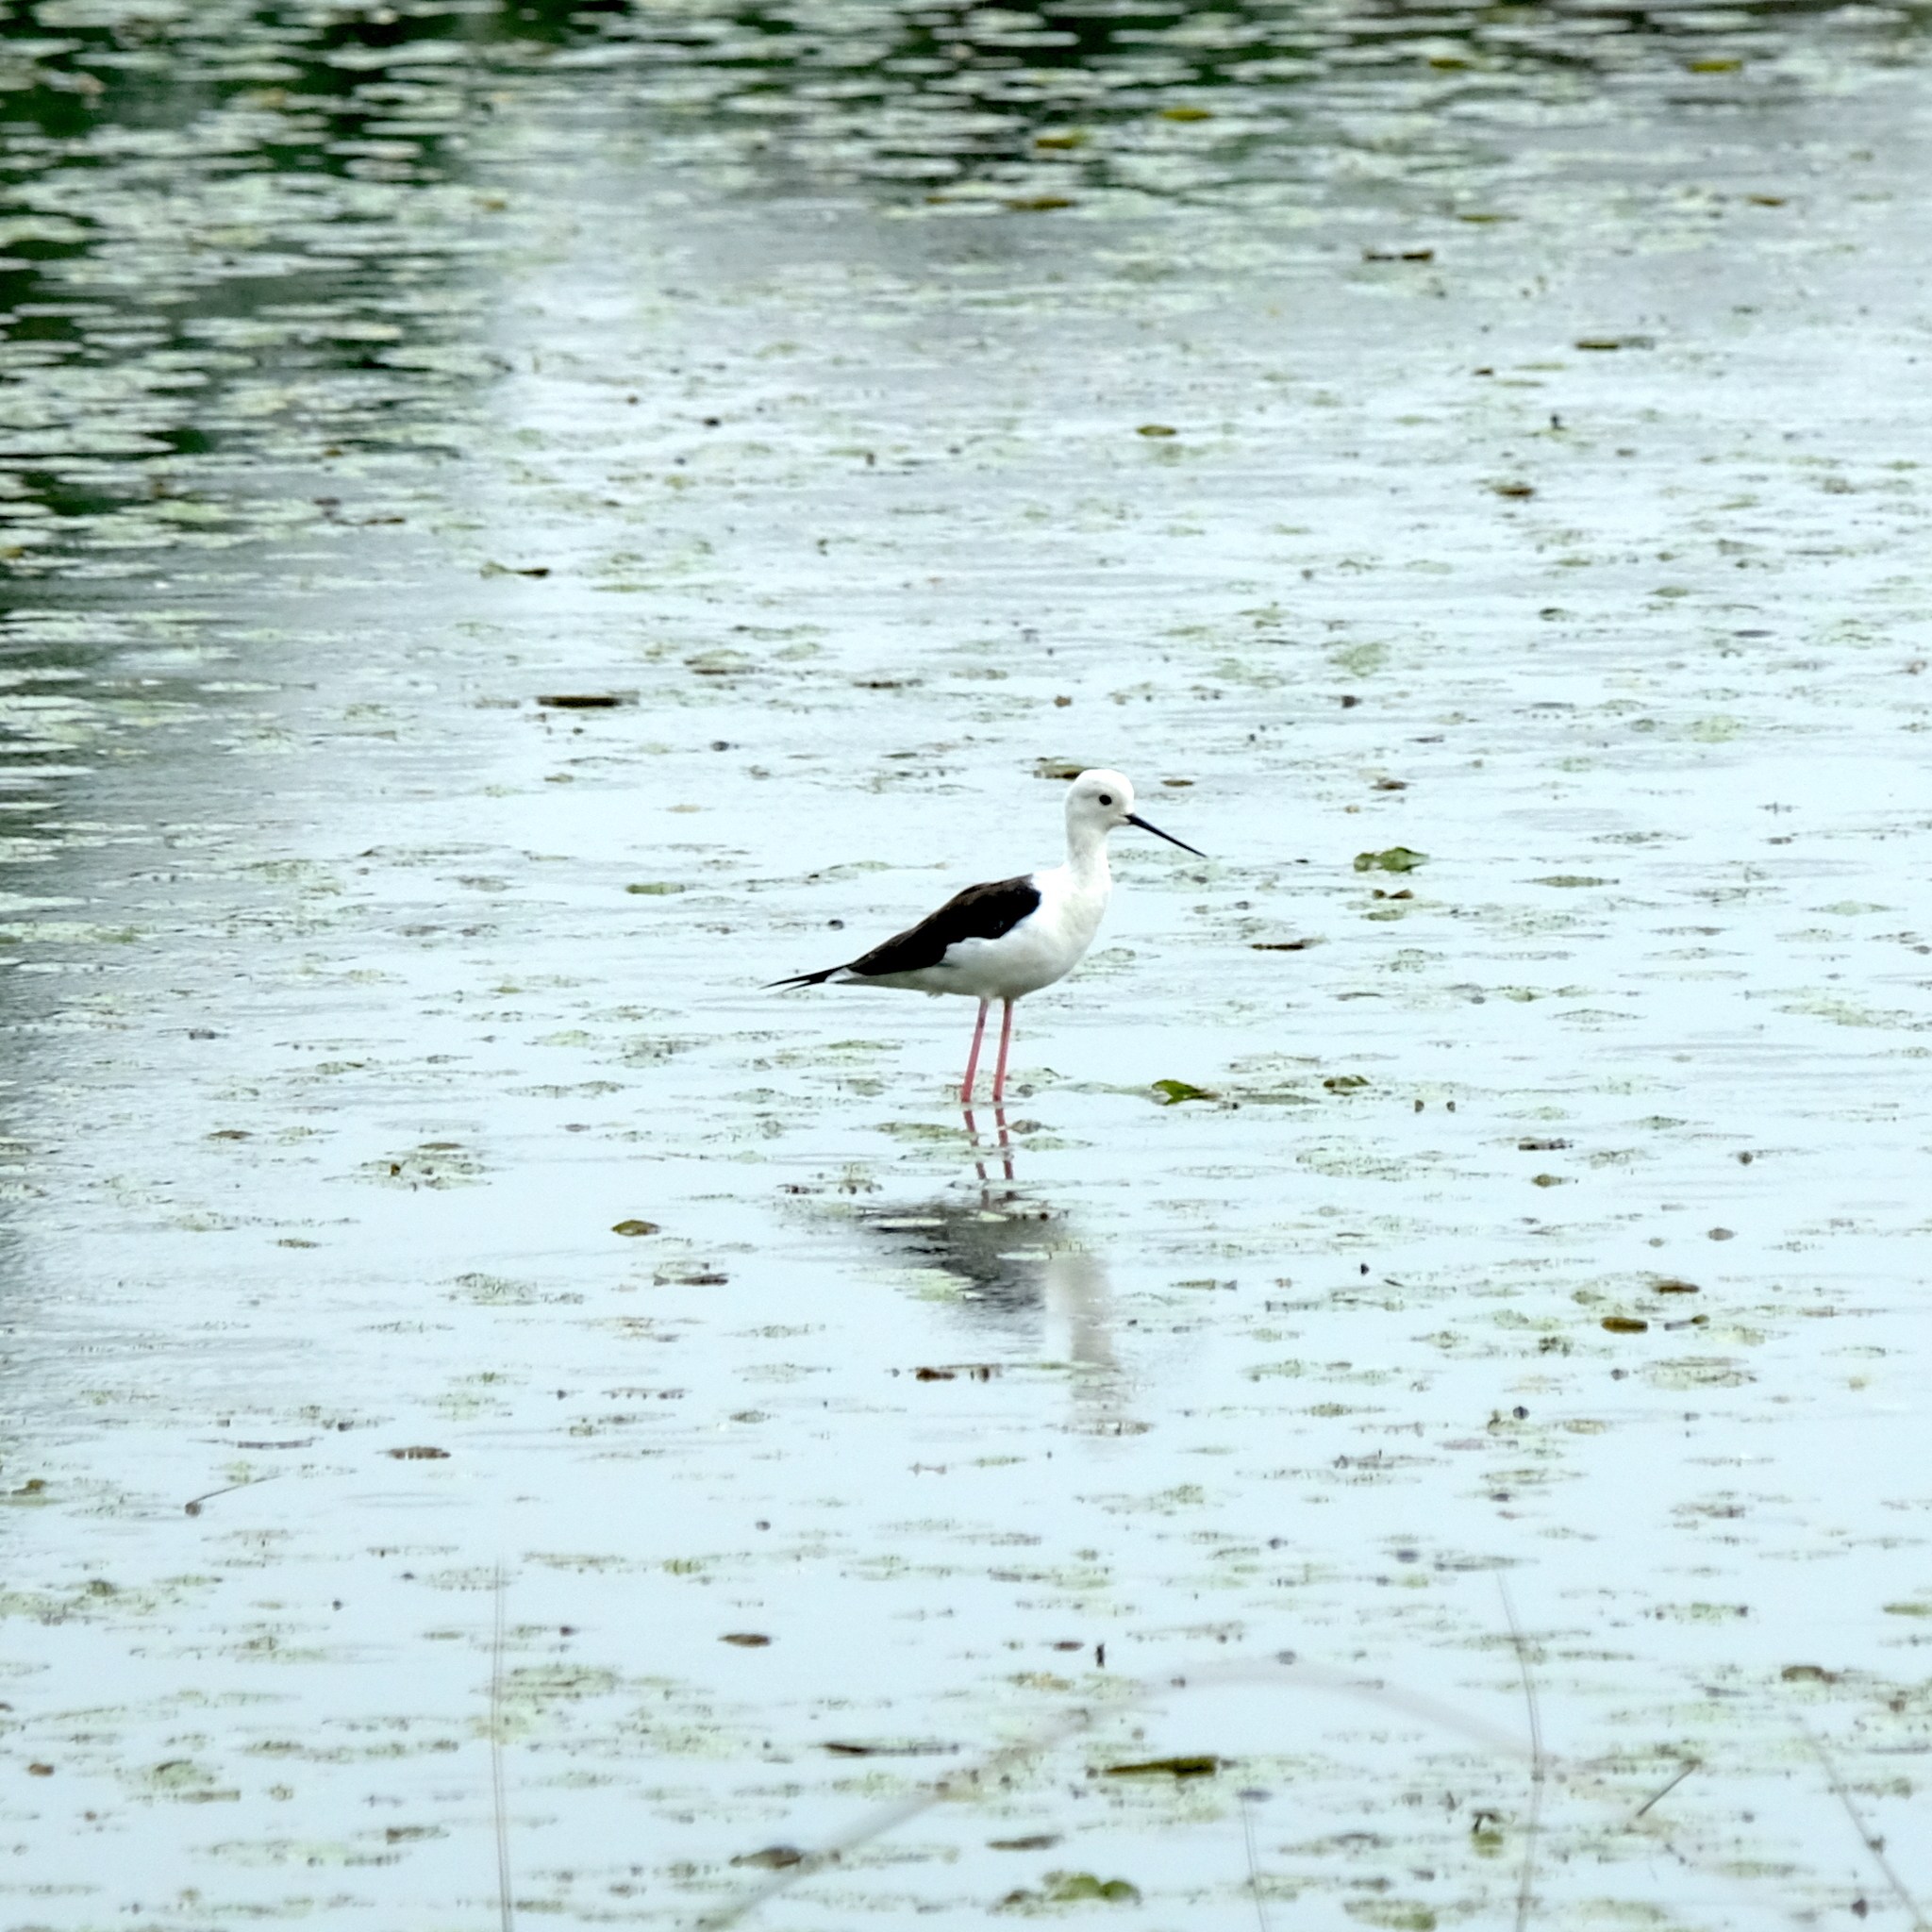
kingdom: Animalia
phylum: Chordata
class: Aves
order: Charadriiformes
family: Recurvirostridae
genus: Himantopus
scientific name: Himantopus himantopus
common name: Black-winged stilt
